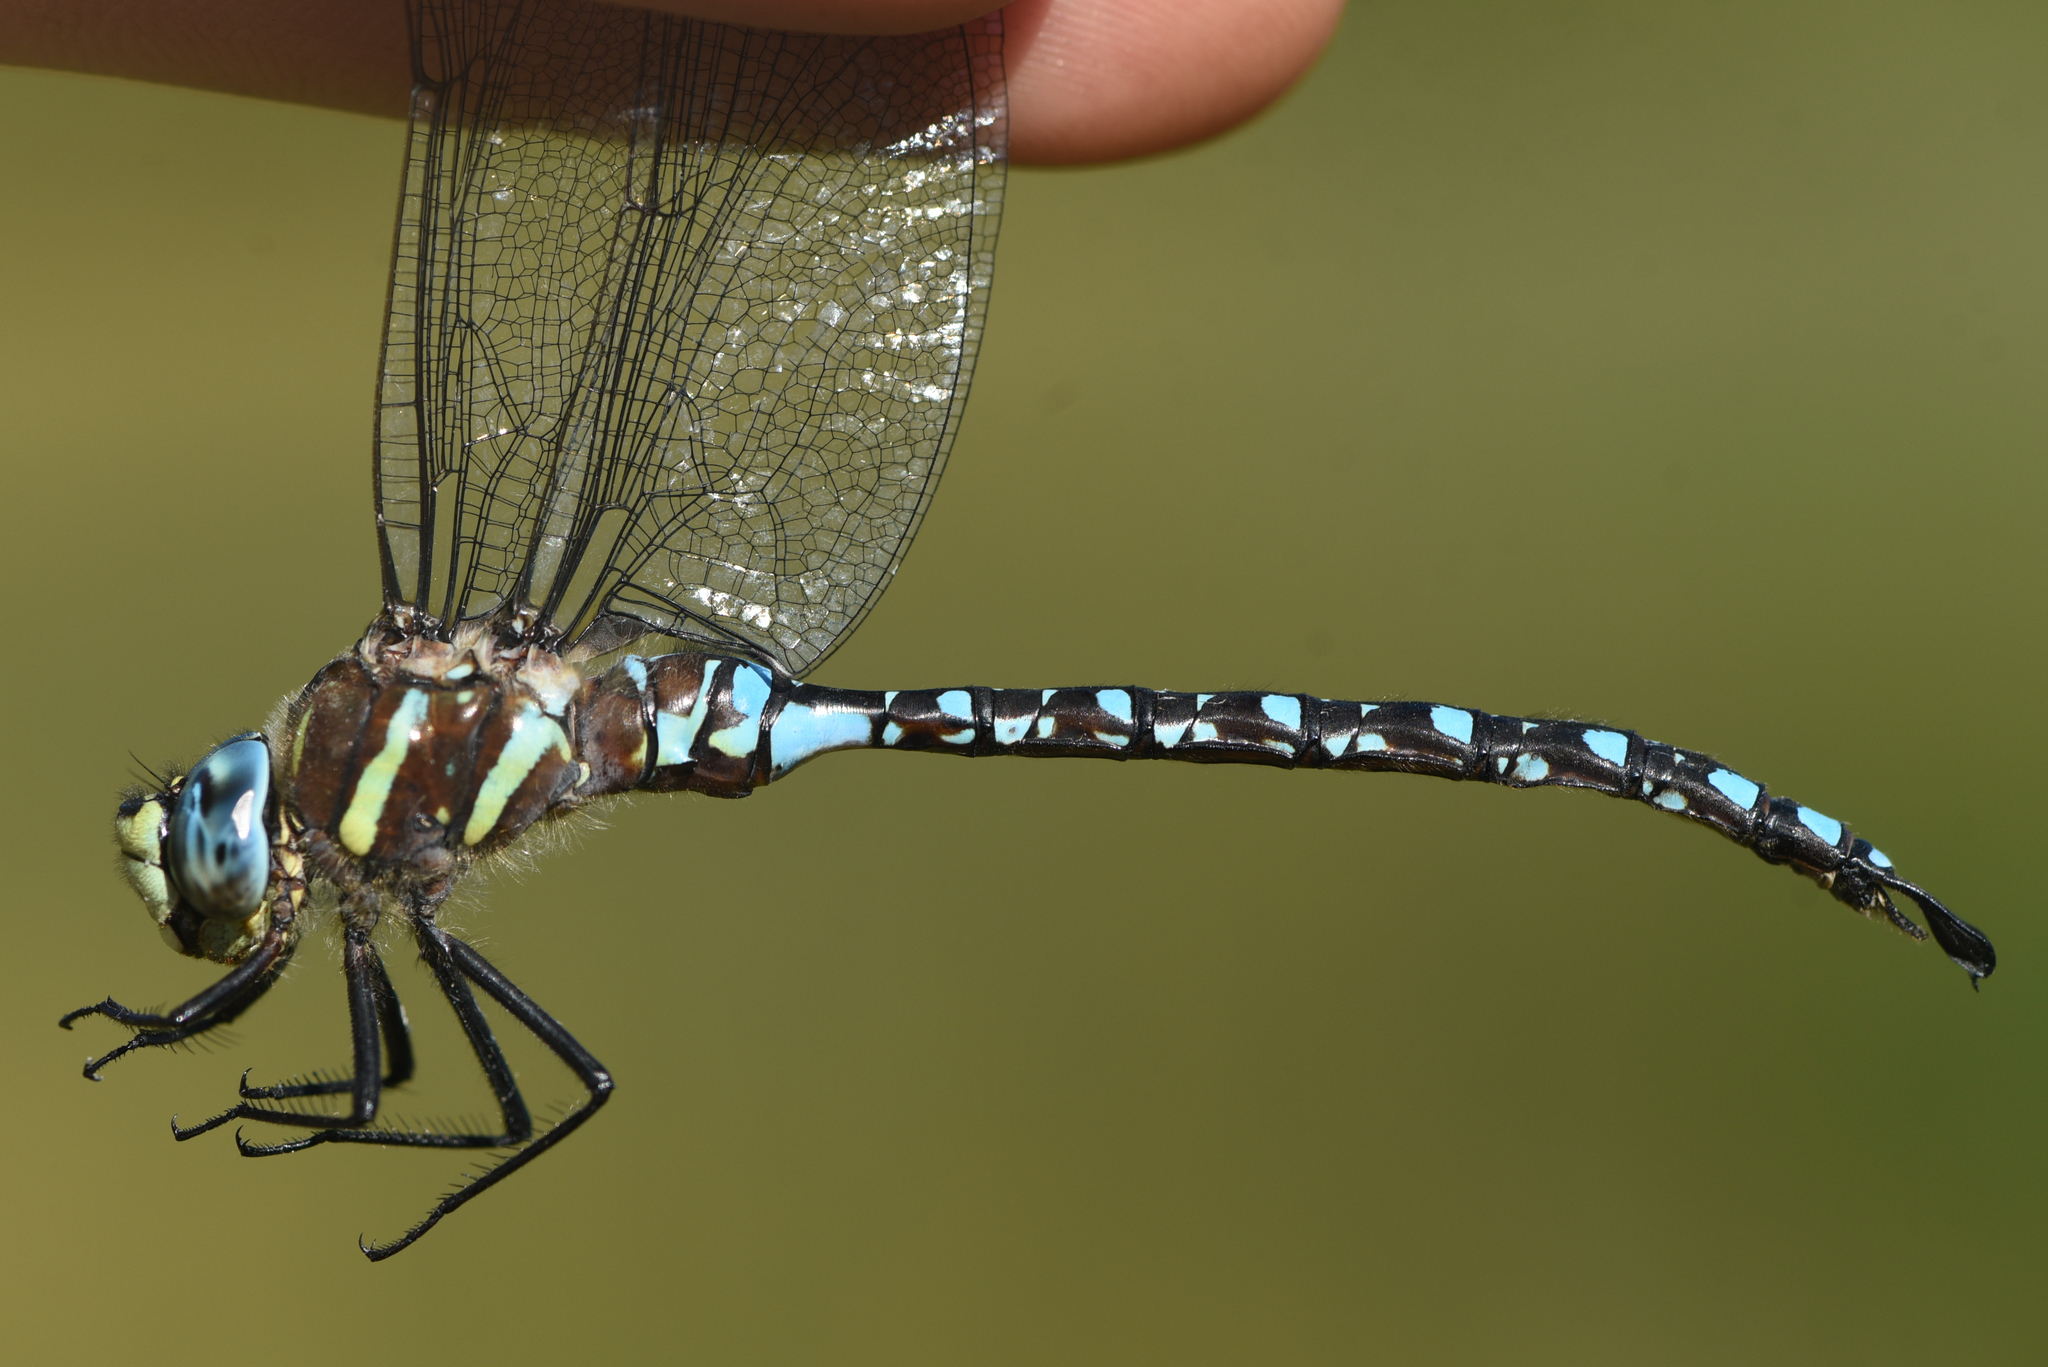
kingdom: Animalia
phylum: Arthropoda
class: Insecta
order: Odonata
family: Aeshnidae
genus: Aeshna
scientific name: Aeshna palmata
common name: Paddle-tailed darner
